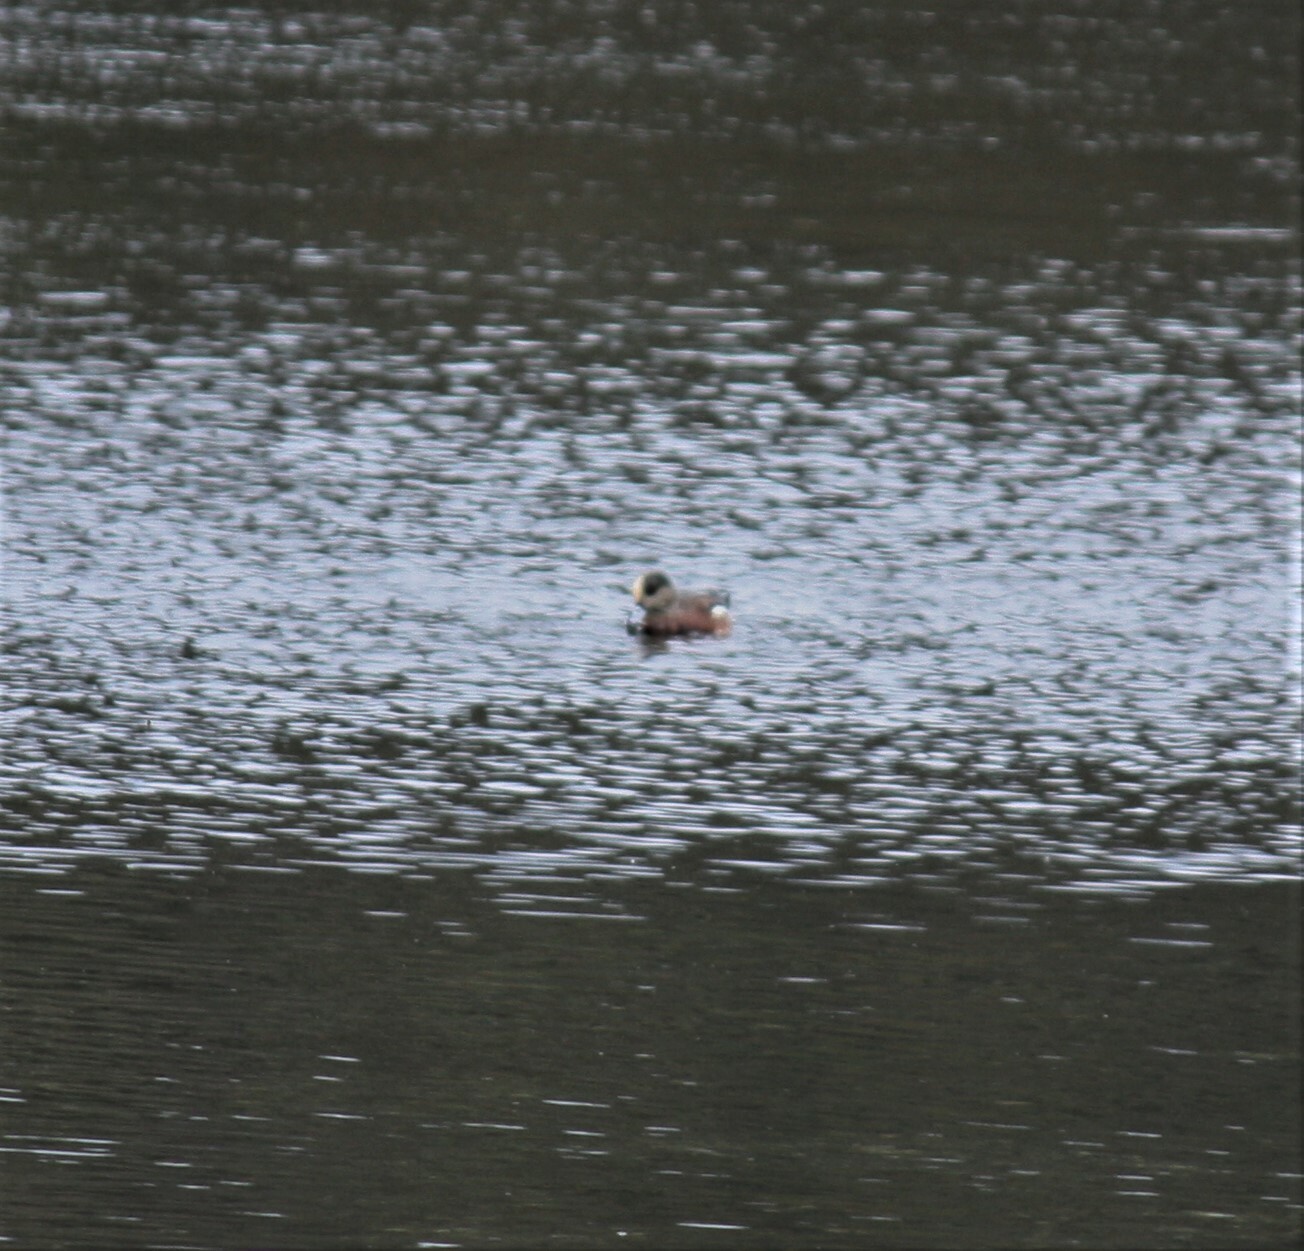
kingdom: Animalia
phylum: Chordata
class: Aves
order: Anseriformes
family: Anatidae
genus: Mareca
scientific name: Mareca americana
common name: American wigeon
